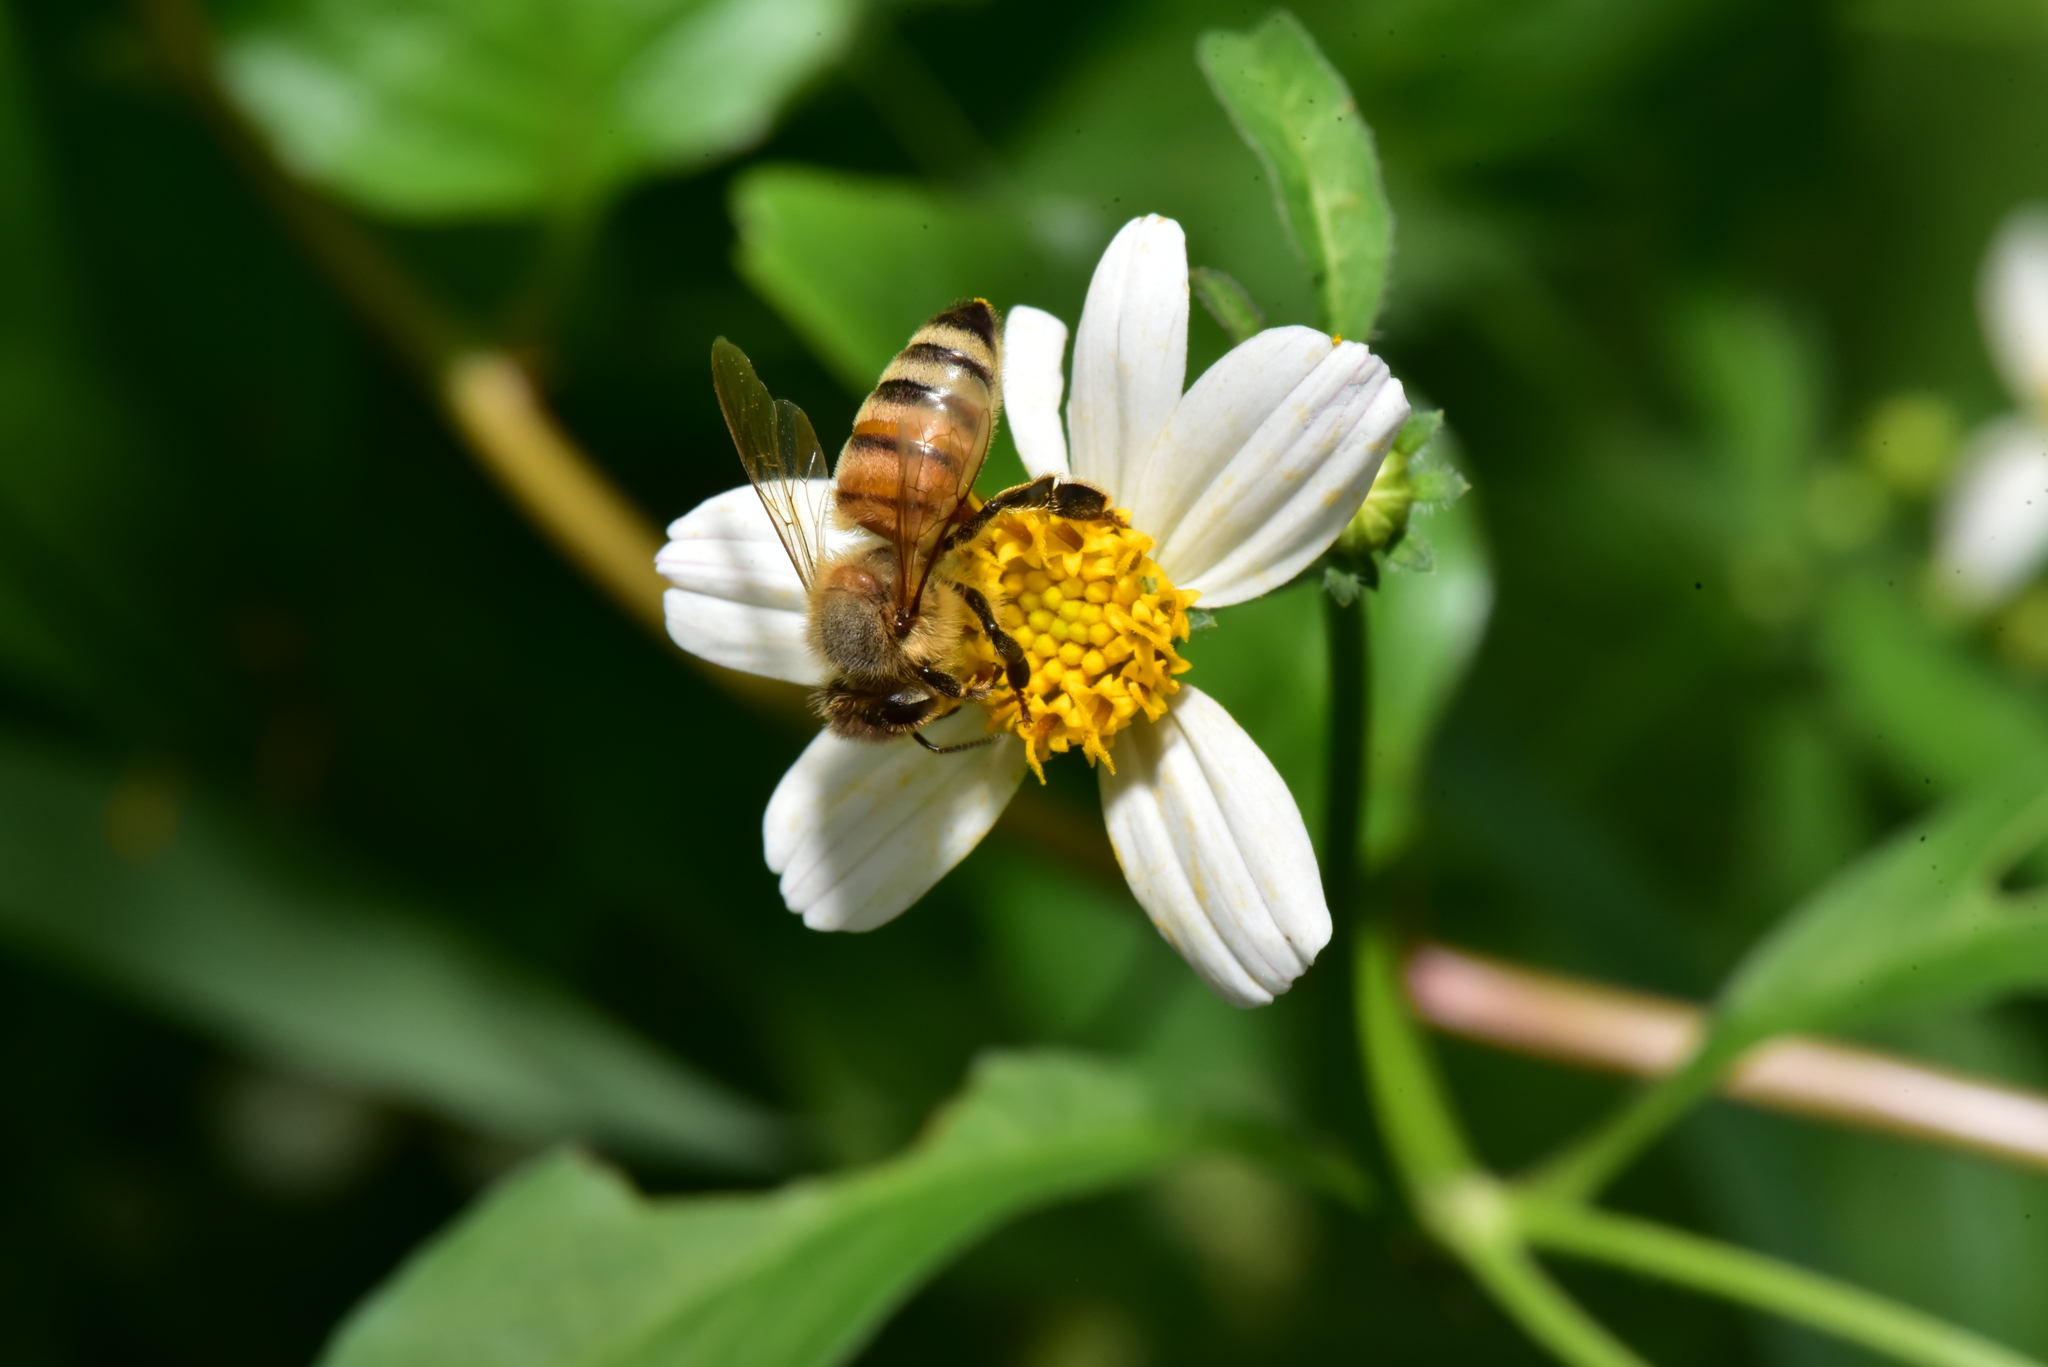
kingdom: Animalia
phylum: Arthropoda
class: Insecta
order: Hymenoptera
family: Apidae
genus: Apis
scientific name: Apis mellifera
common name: Honey bee
